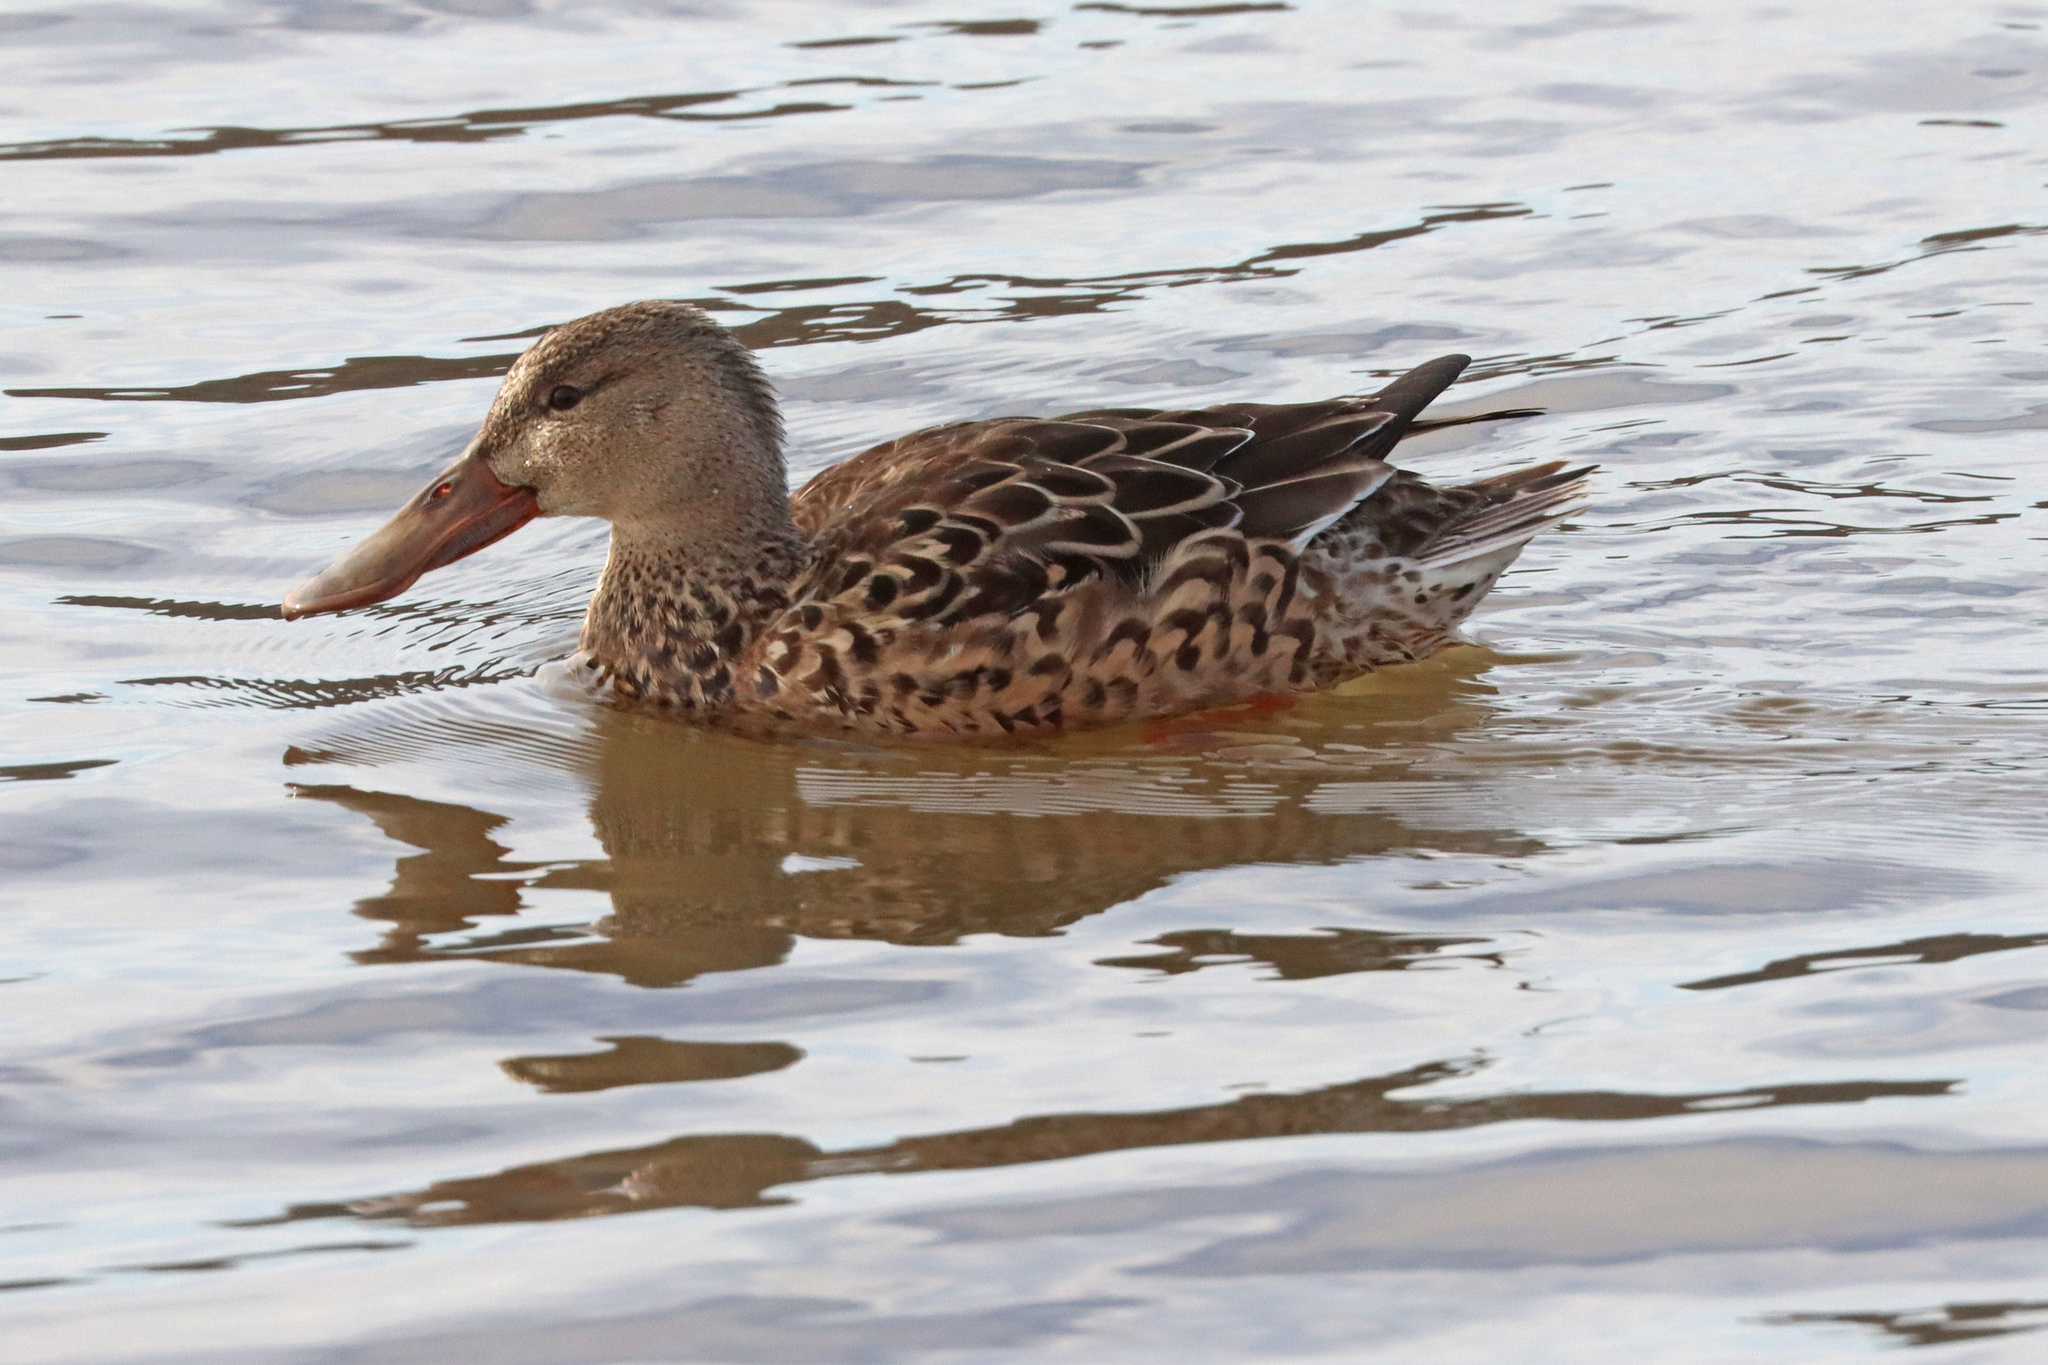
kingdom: Animalia
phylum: Chordata
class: Aves
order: Anseriformes
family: Anatidae
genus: Spatula
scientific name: Spatula clypeata
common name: Northern shoveler
